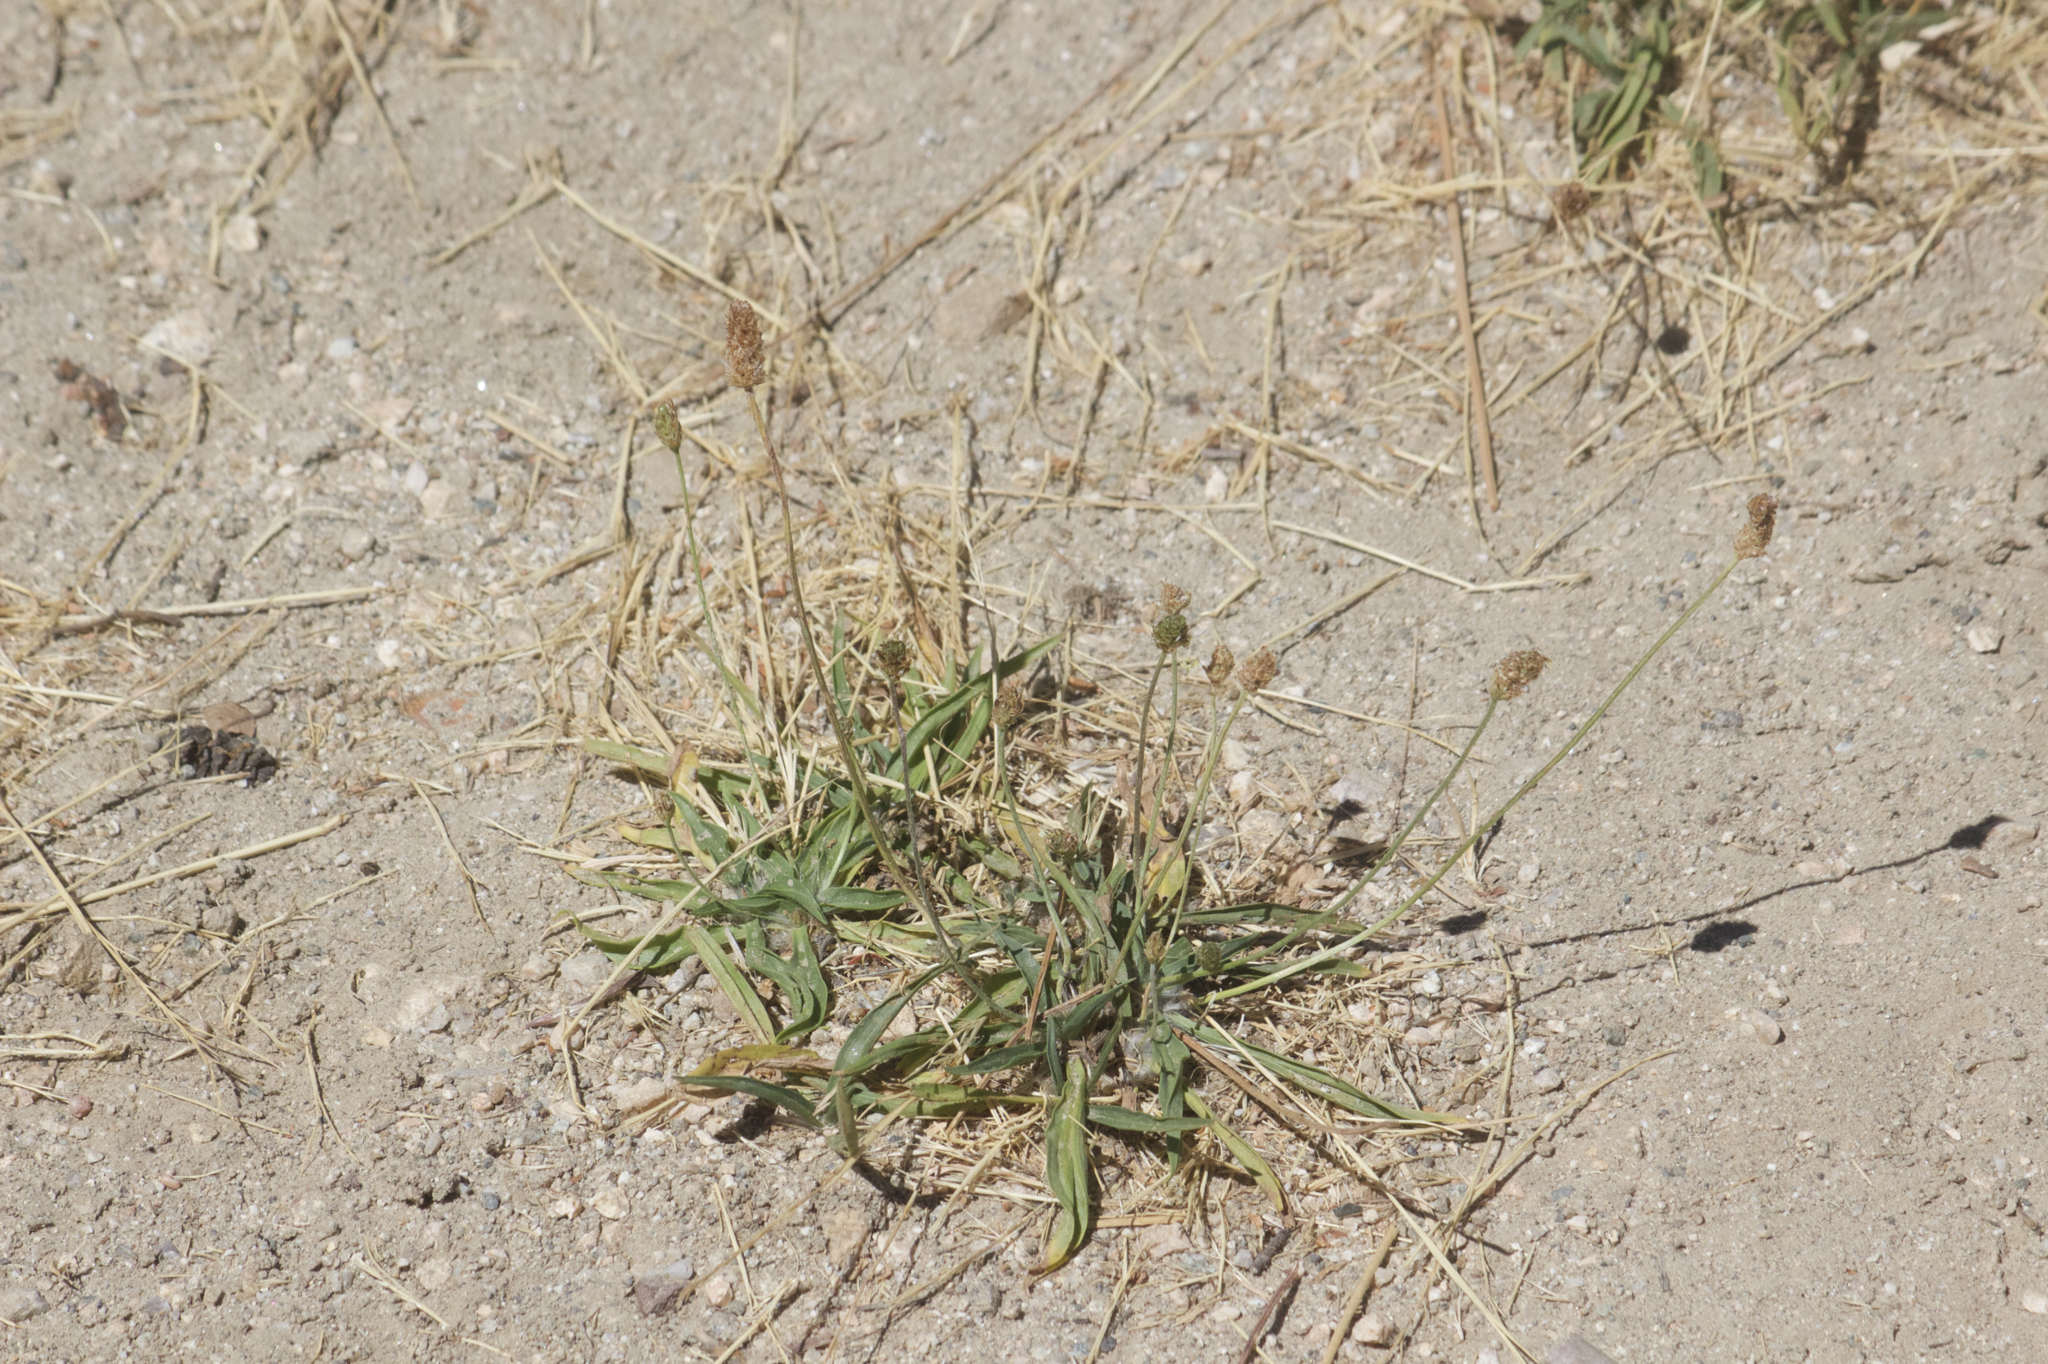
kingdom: Plantae
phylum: Tracheophyta
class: Magnoliopsida
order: Lamiales
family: Plantaginaceae
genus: Plantago
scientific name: Plantago lanceolata
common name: Ribwort plantain
